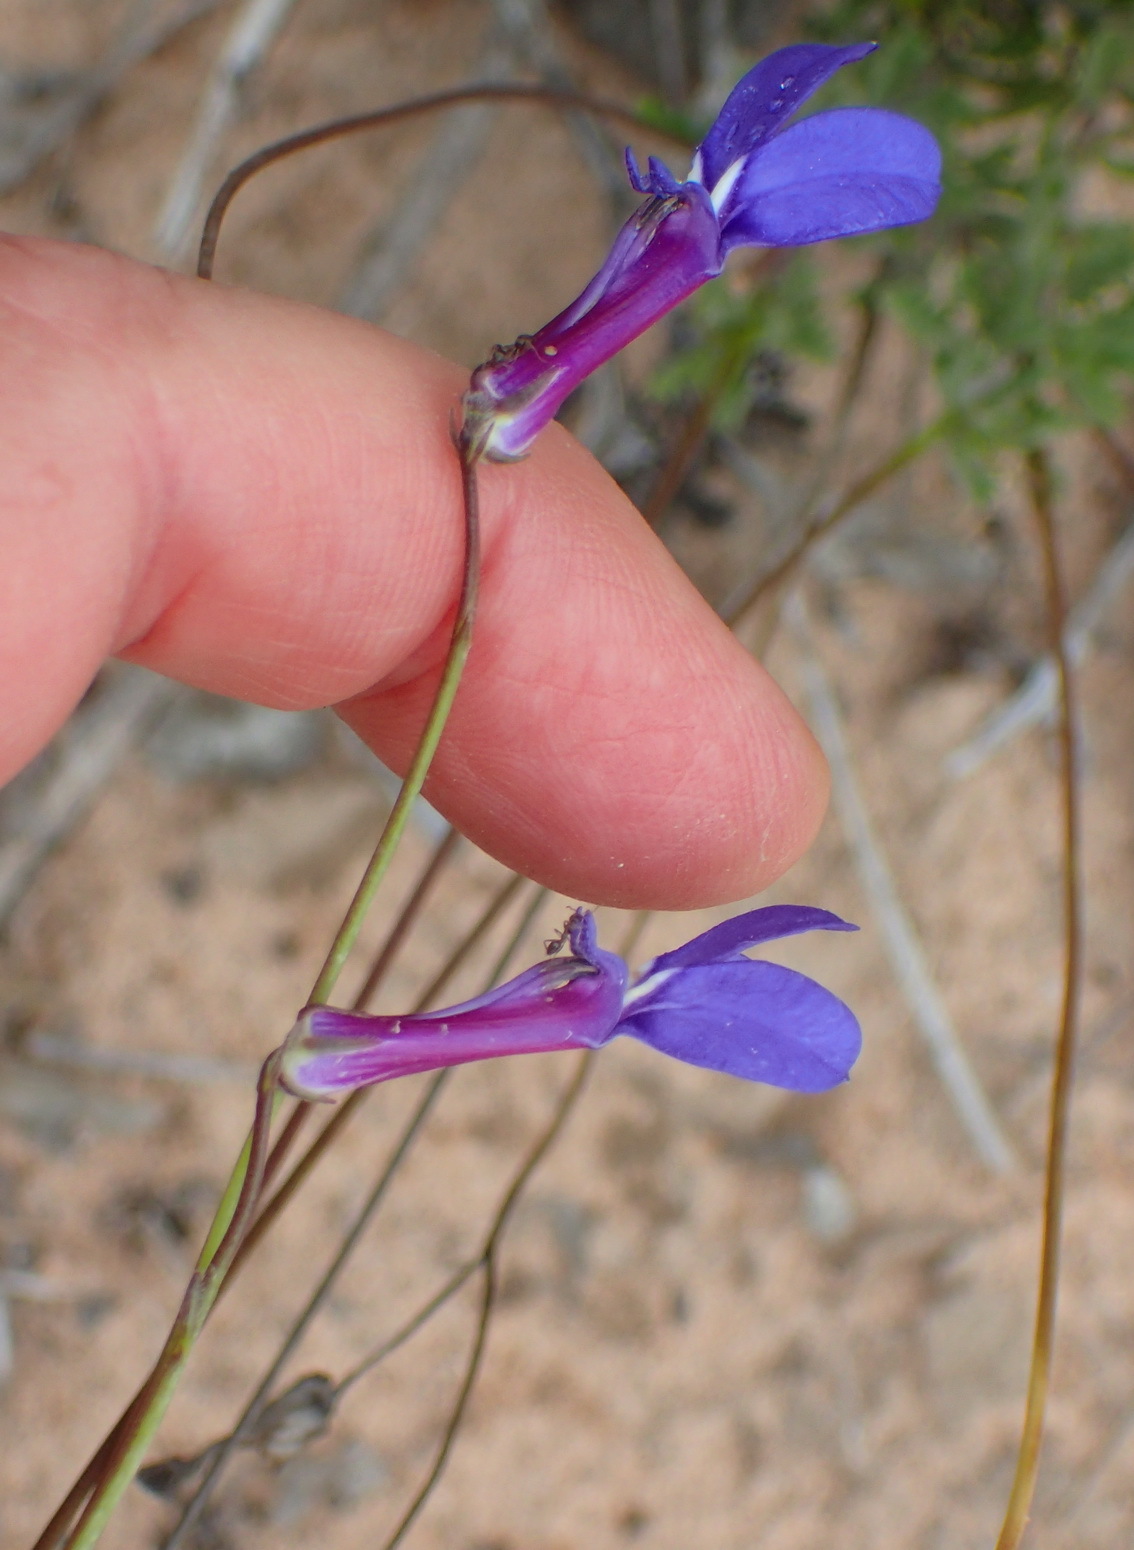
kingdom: Plantae
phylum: Tracheophyta
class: Magnoliopsida
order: Asterales
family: Campanulaceae
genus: Lobelia
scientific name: Lobelia tomentosa
